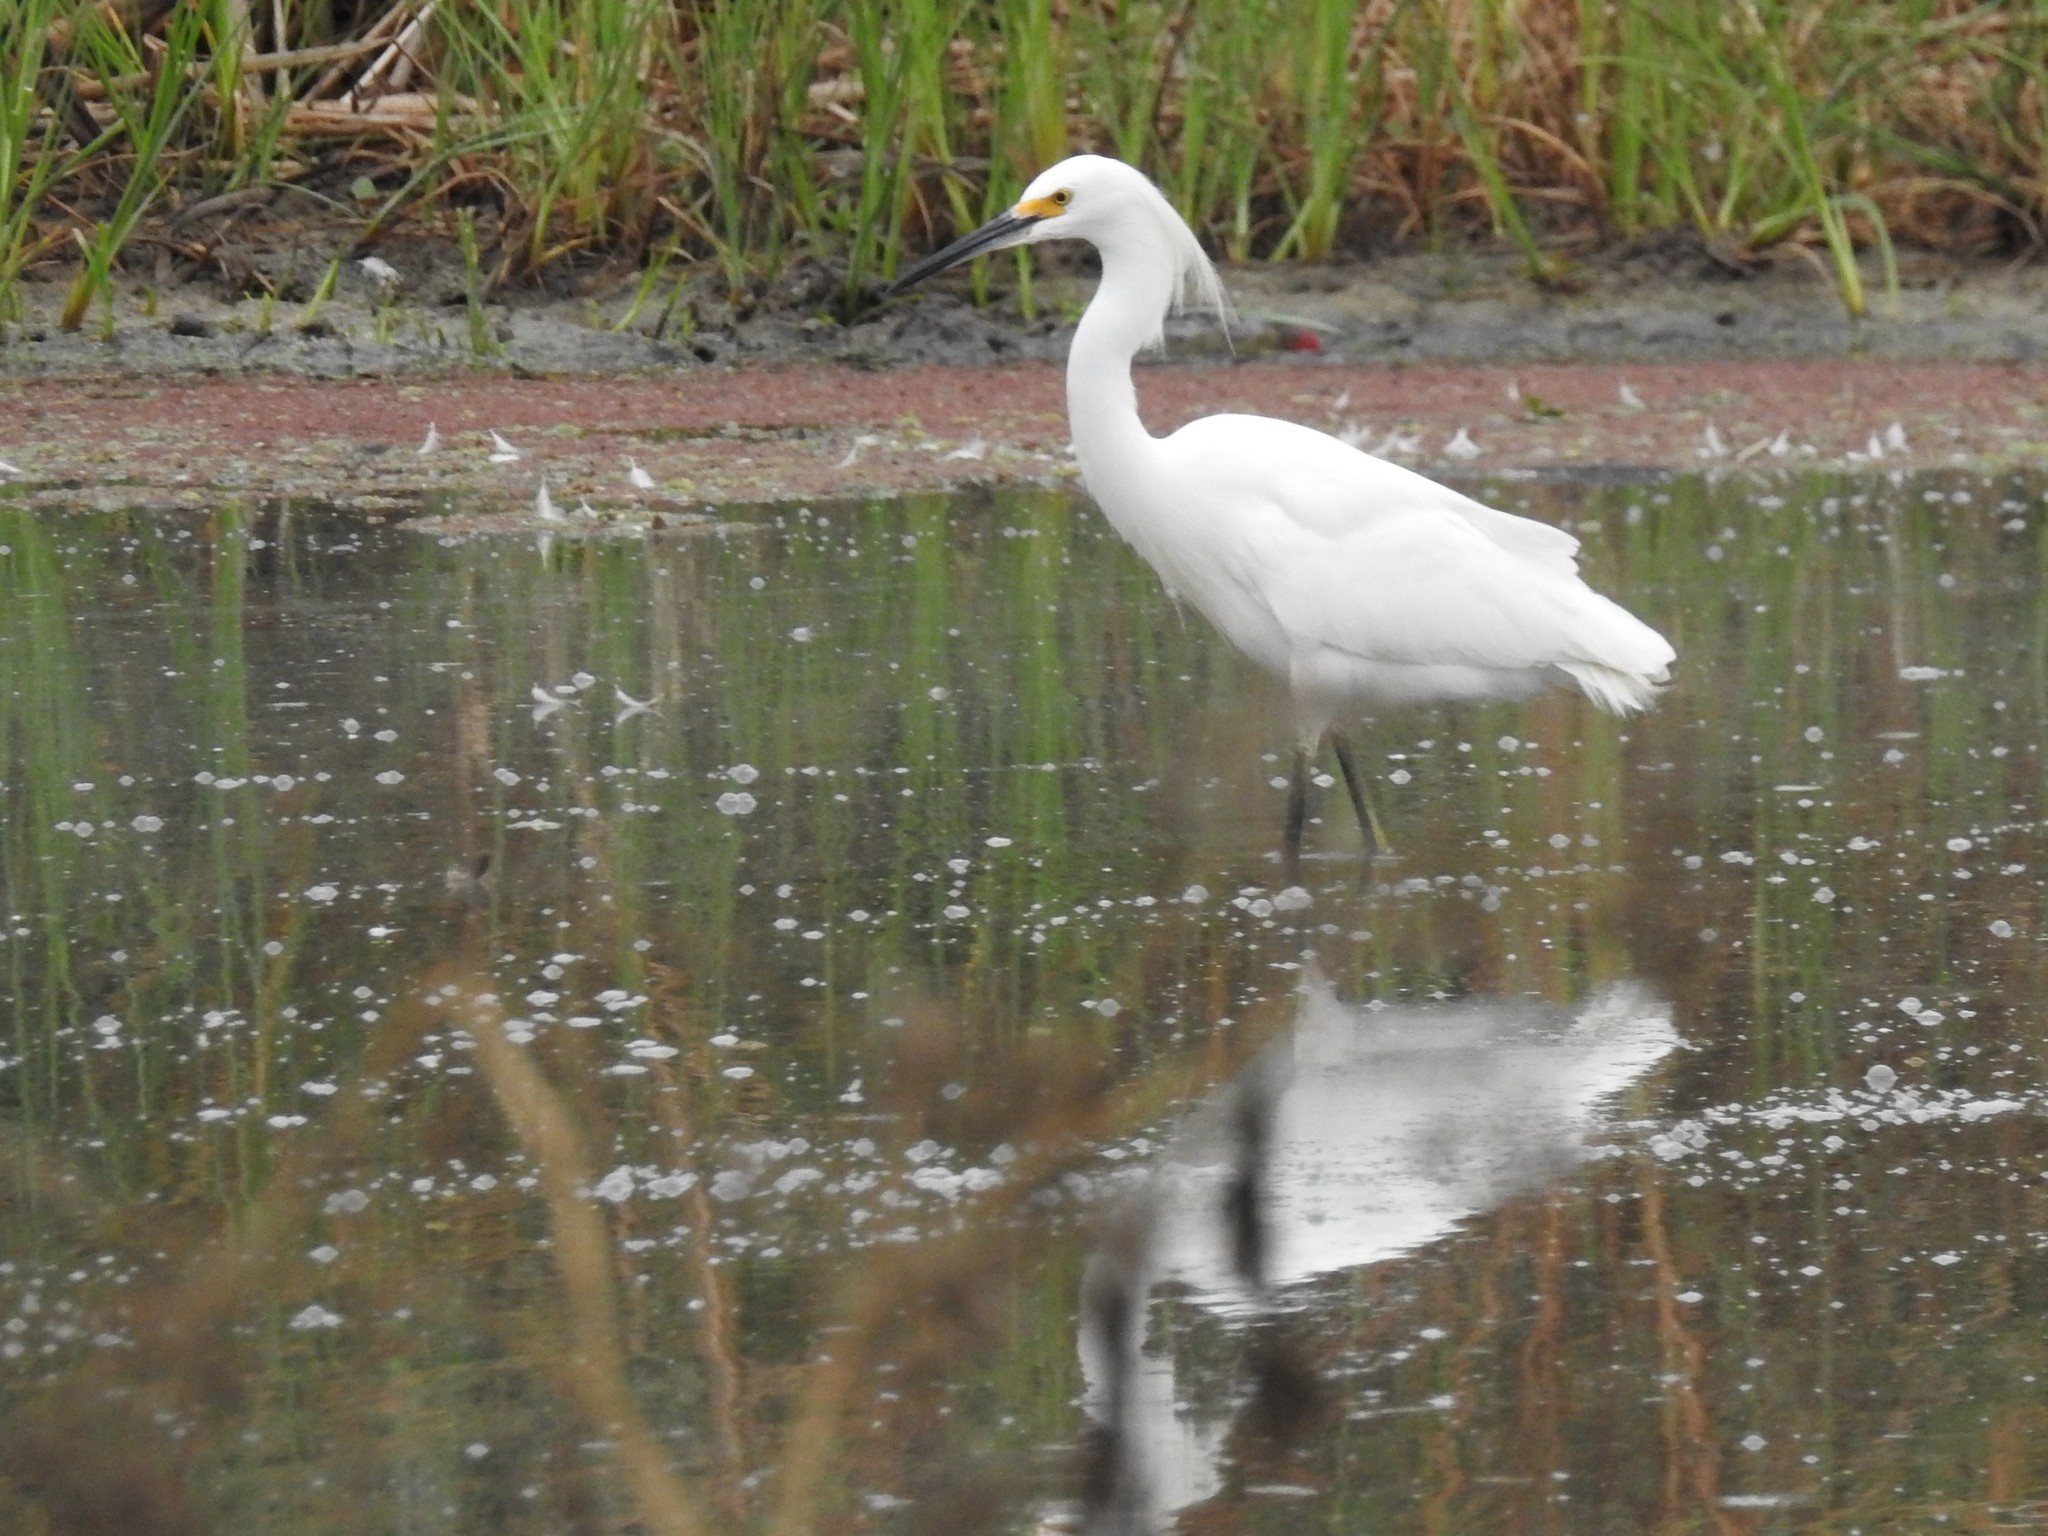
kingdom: Animalia
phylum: Chordata
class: Aves
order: Pelecaniformes
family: Ardeidae
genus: Egretta
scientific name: Egretta thula
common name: Snowy egret
